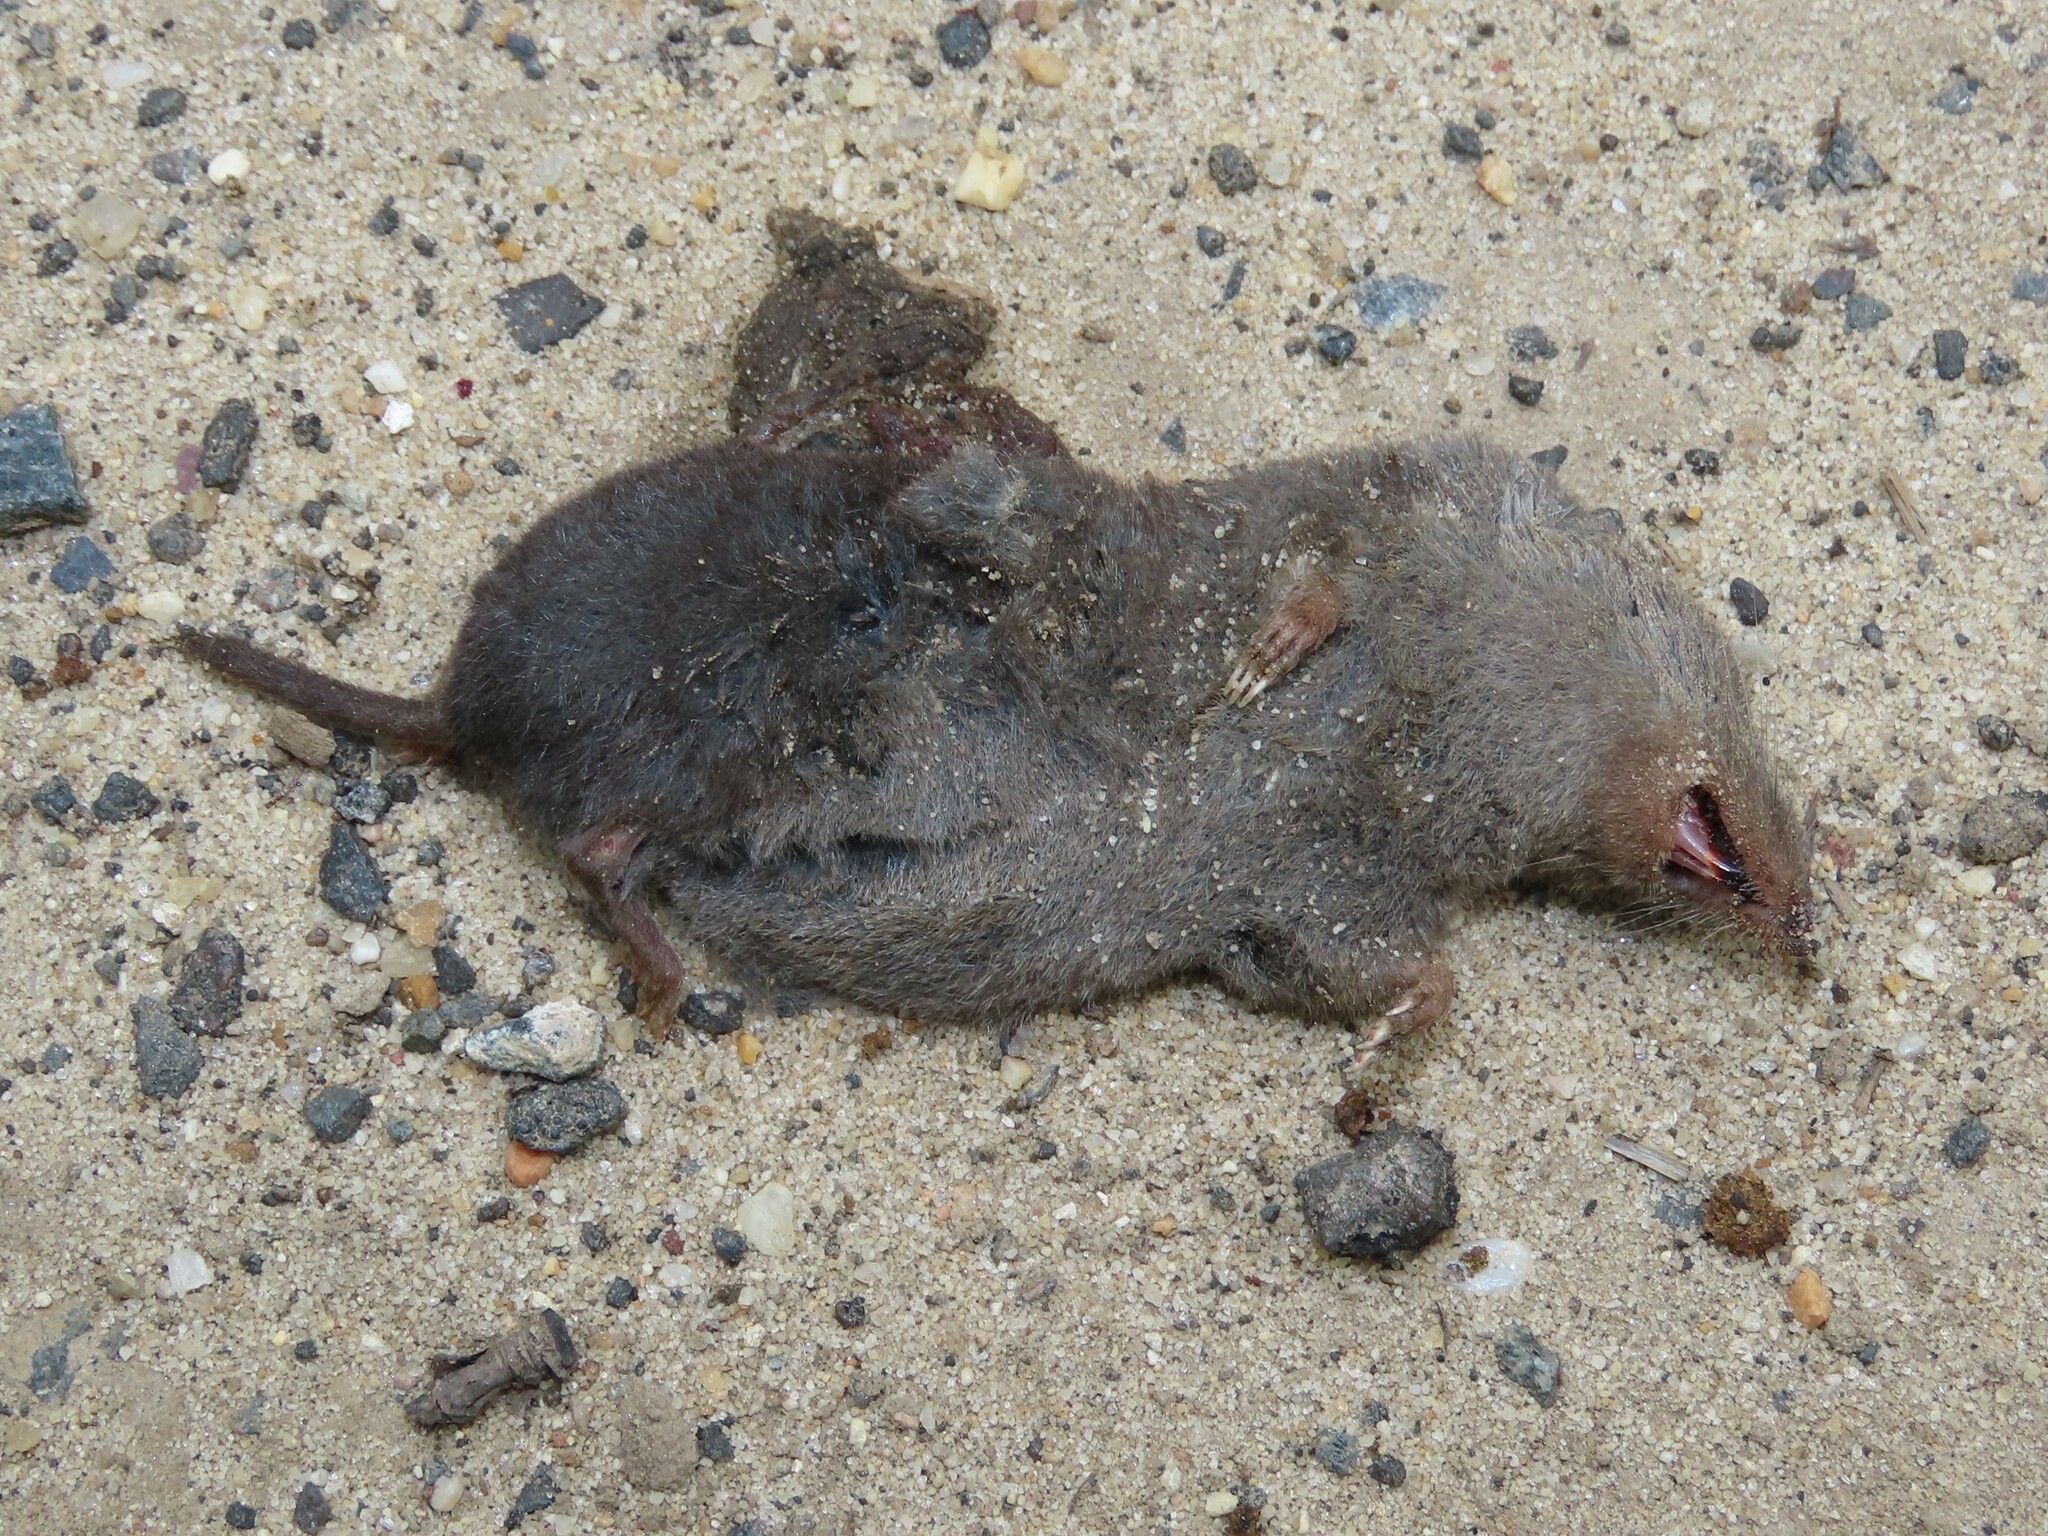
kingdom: Animalia
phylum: Chordata
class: Mammalia
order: Soricomorpha
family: Soricidae
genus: Blarina
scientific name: Blarina brevicauda
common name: Northern short-tailed shrew
